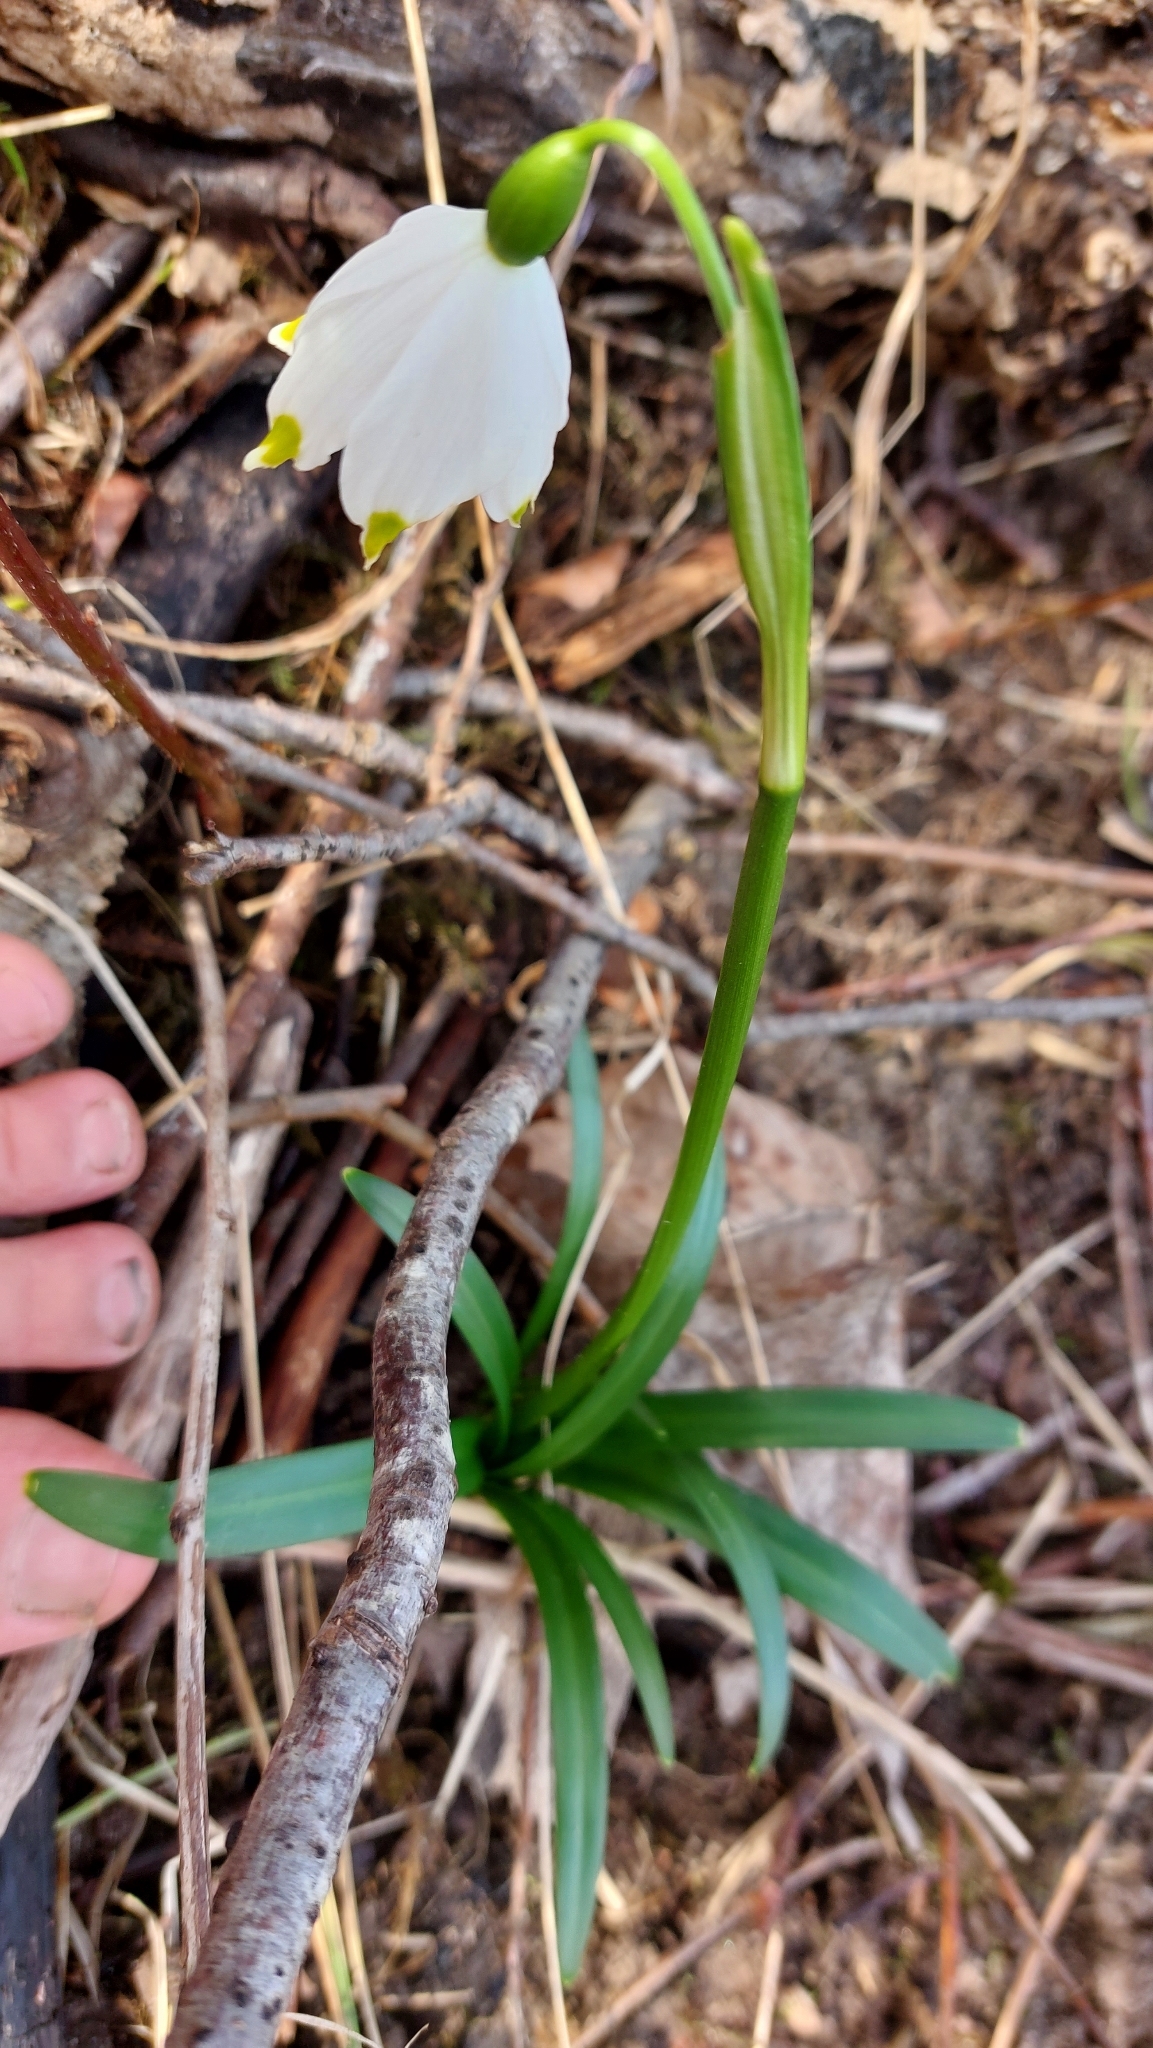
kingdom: Plantae
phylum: Tracheophyta
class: Liliopsida
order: Asparagales
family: Amaryllidaceae
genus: Leucojum
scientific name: Leucojum vernum
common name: Spring snowflake
